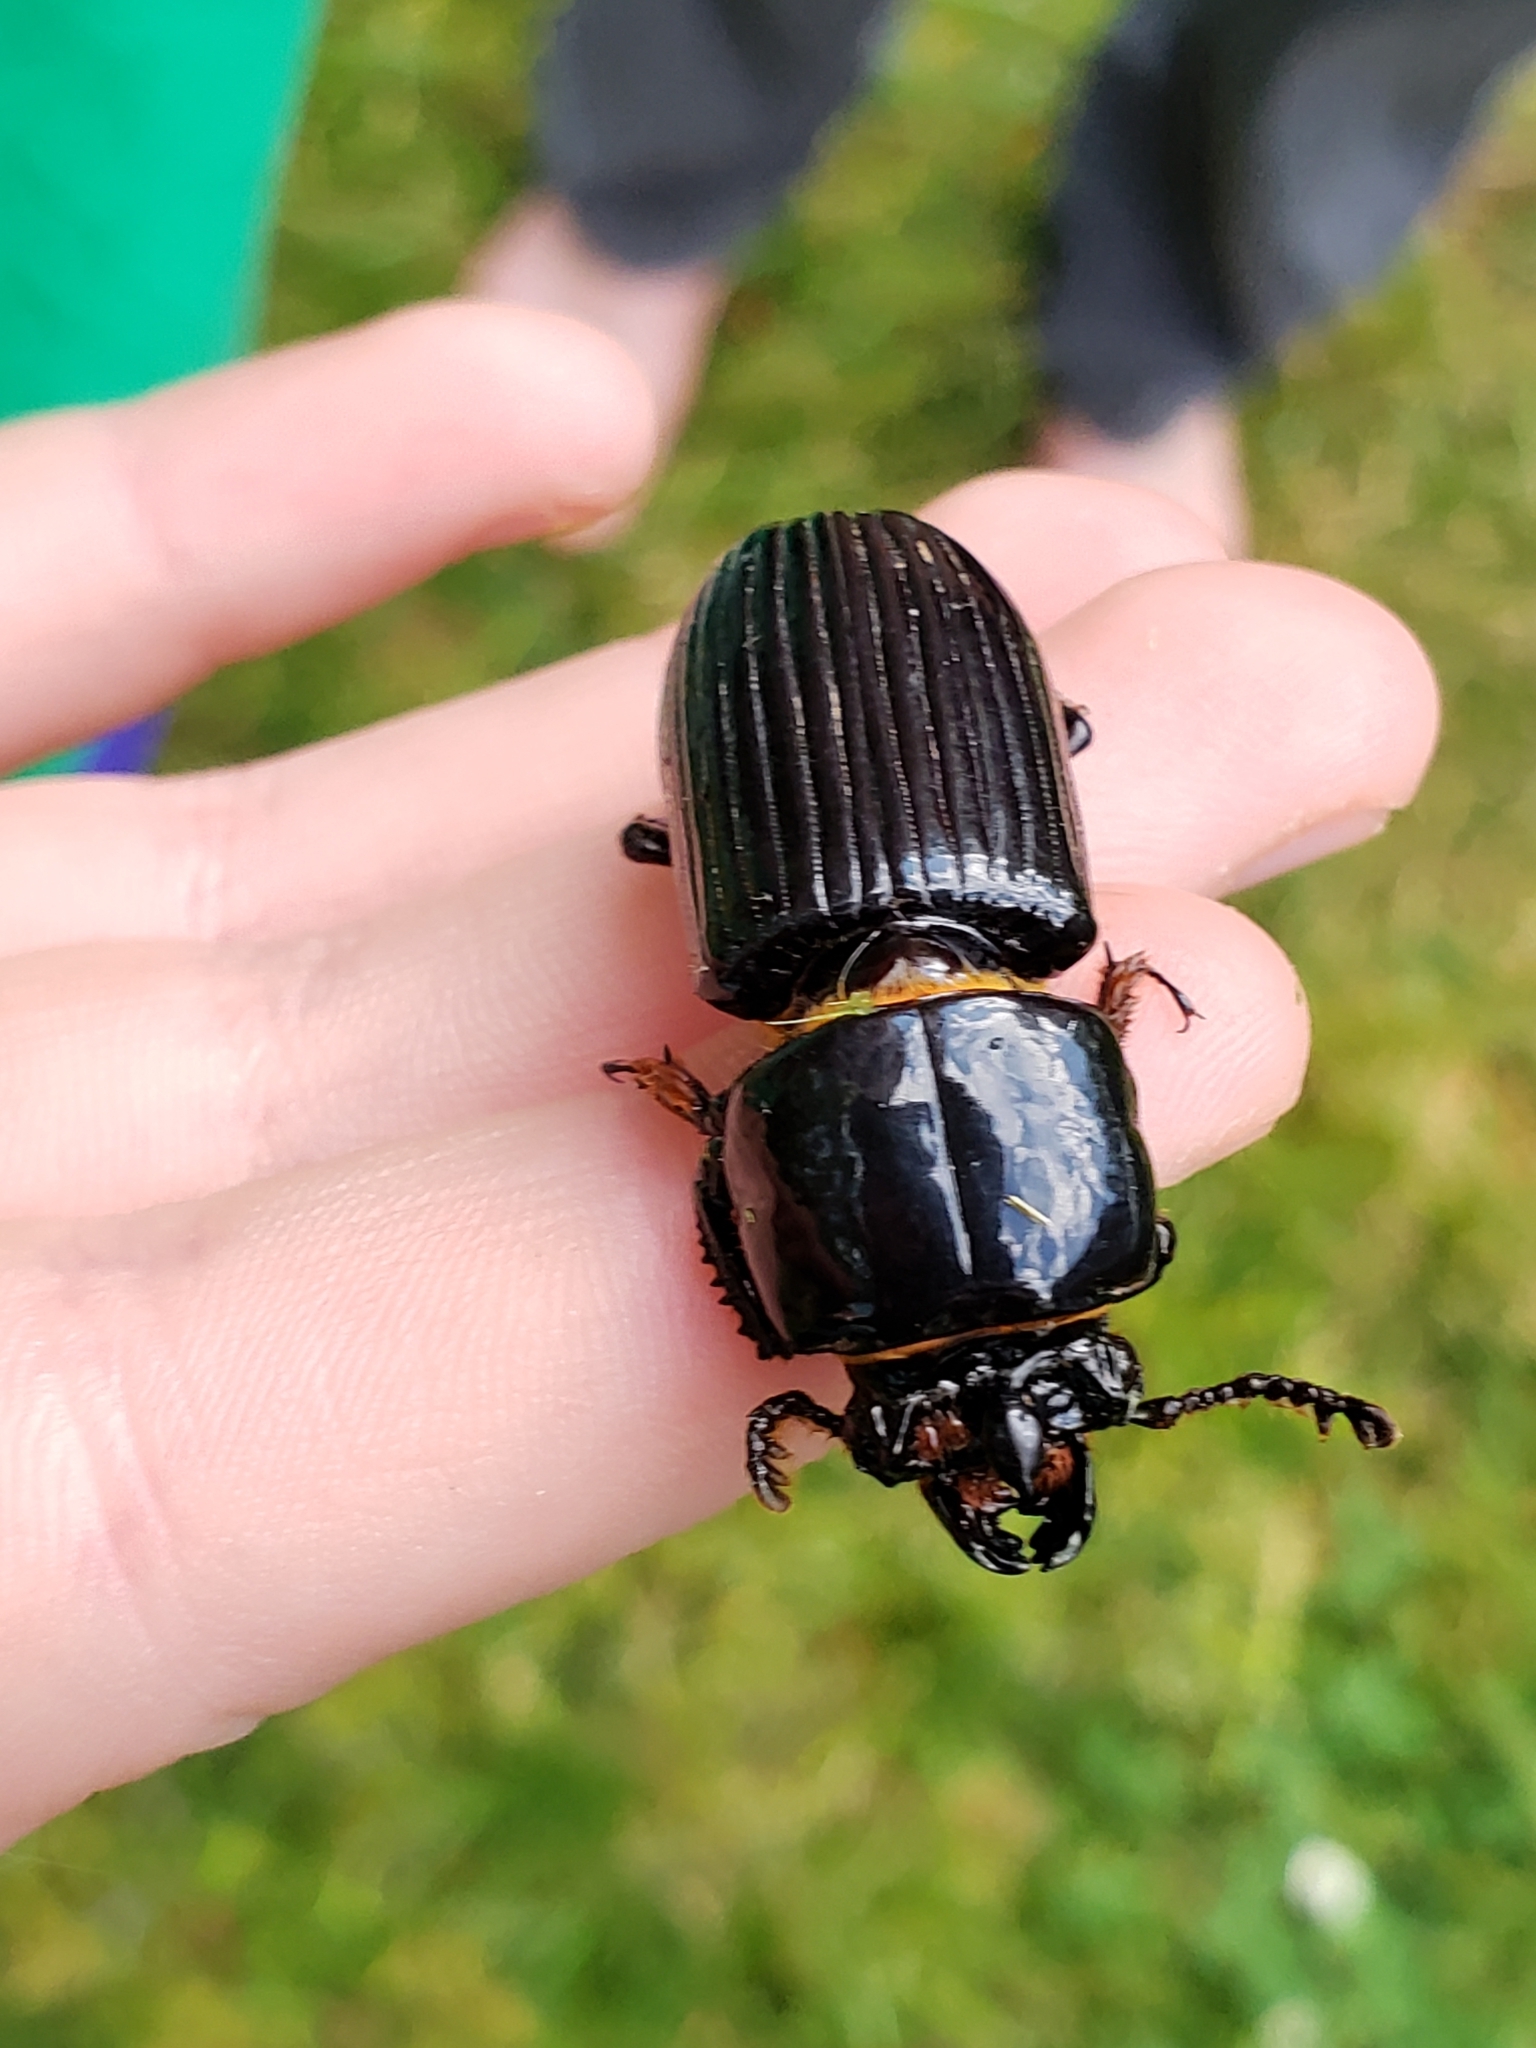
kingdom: Animalia
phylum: Arthropoda
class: Insecta
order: Coleoptera
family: Passalidae
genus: Odontotaenius
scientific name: Odontotaenius disjunctus
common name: Patent leather beetle
